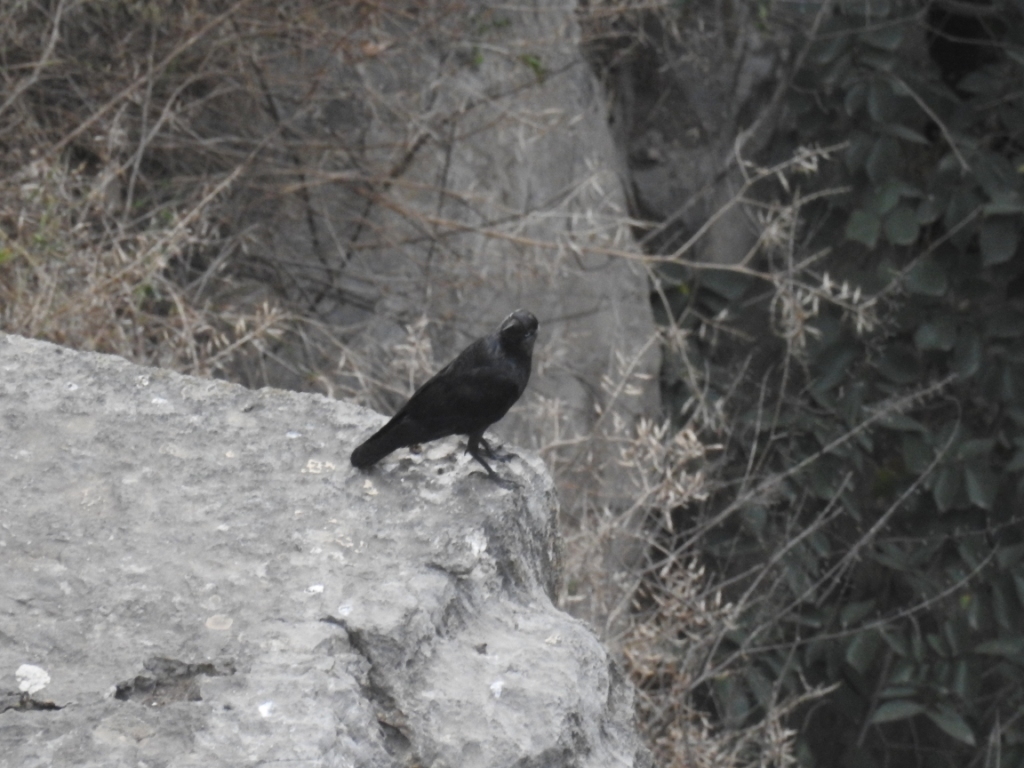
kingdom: Animalia
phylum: Chordata
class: Aves
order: Passeriformes
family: Corvidae
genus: Coloeus
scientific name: Coloeus monedula
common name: Western jackdaw
